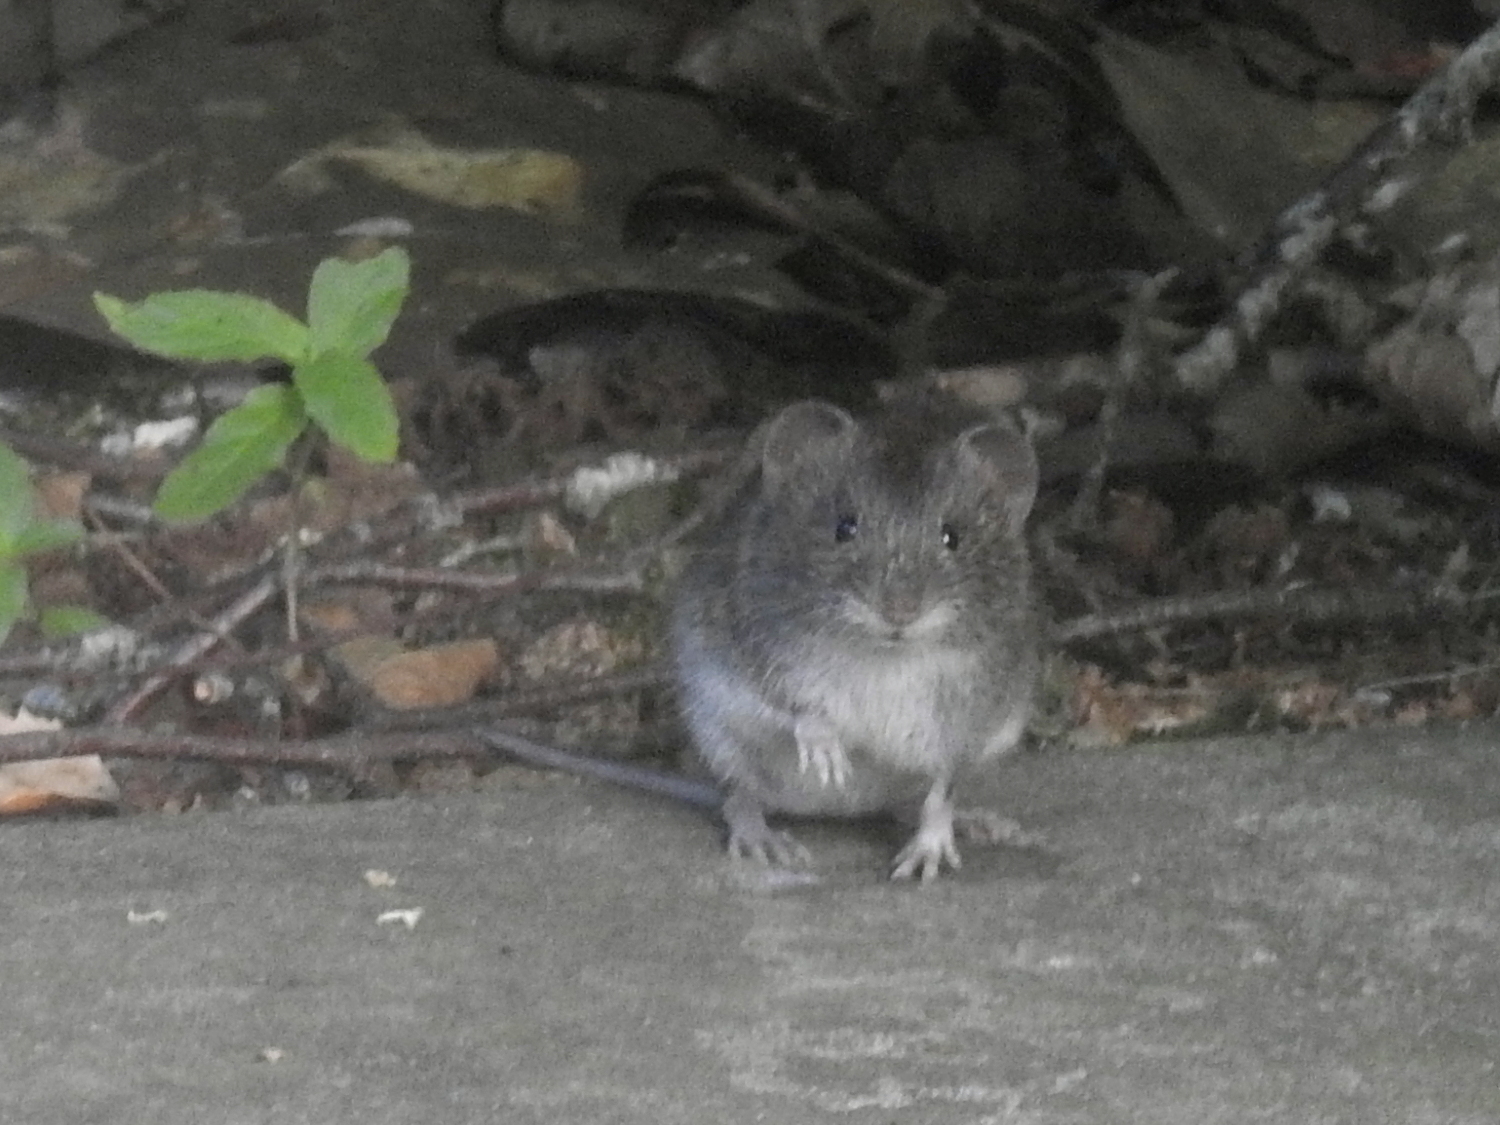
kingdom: Animalia
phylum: Chordata
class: Mammalia
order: Rodentia
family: Cricetidae
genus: Myodes
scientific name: Myodes glareolus
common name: Bank vole
